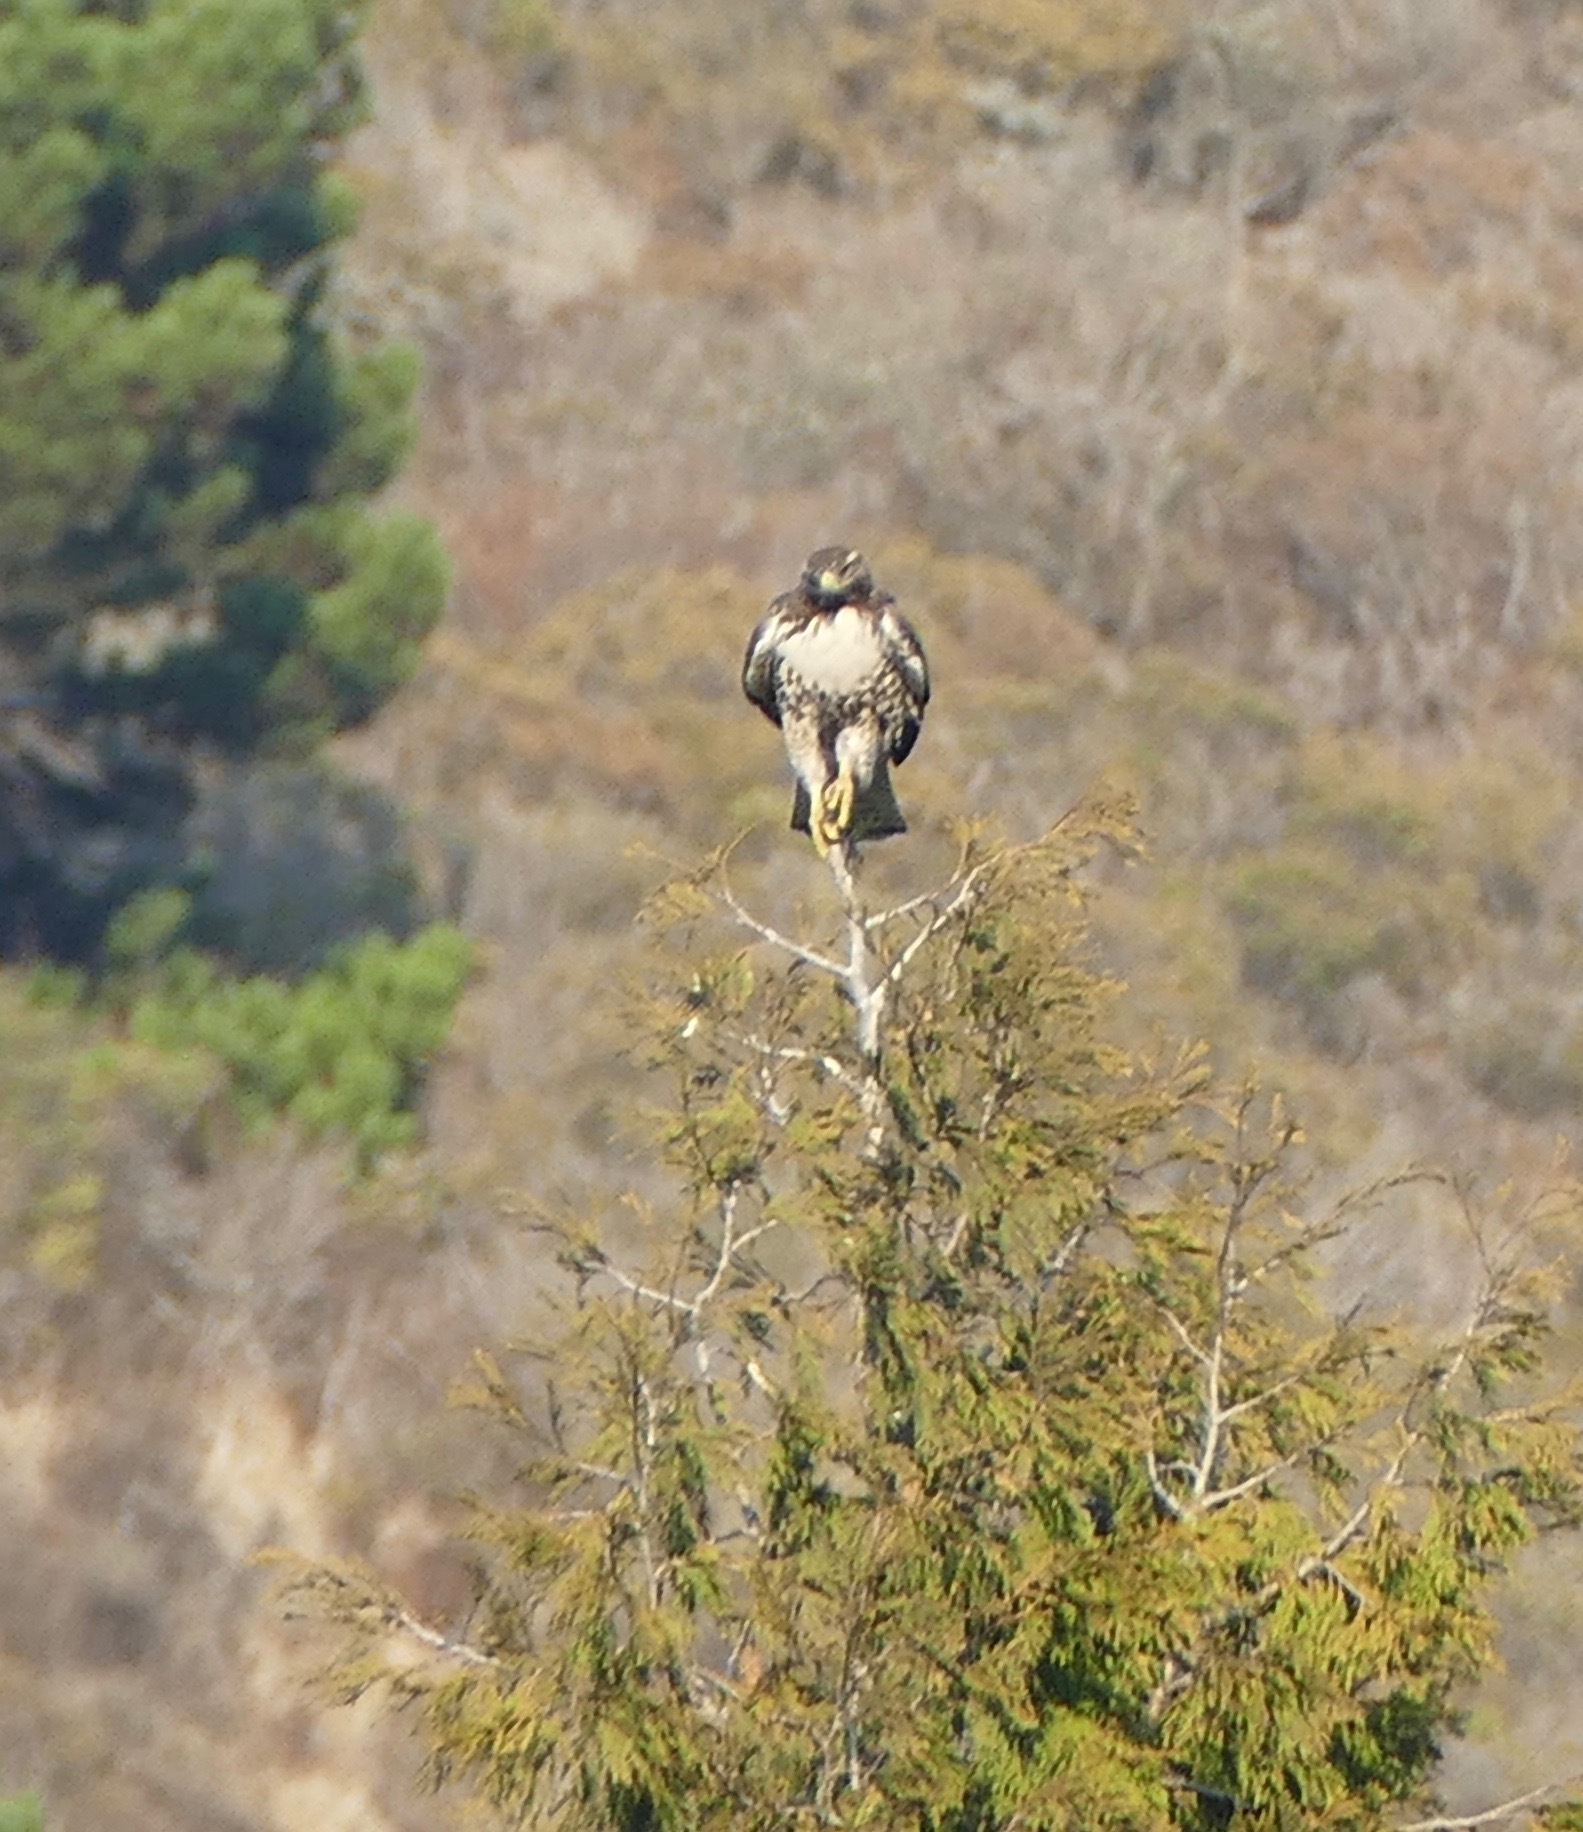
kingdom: Animalia
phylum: Chordata
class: Aves
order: Accipitriformes
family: Accipitridae
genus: Buteo
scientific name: Buteo jamaicensis
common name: Red-tailed hawk
